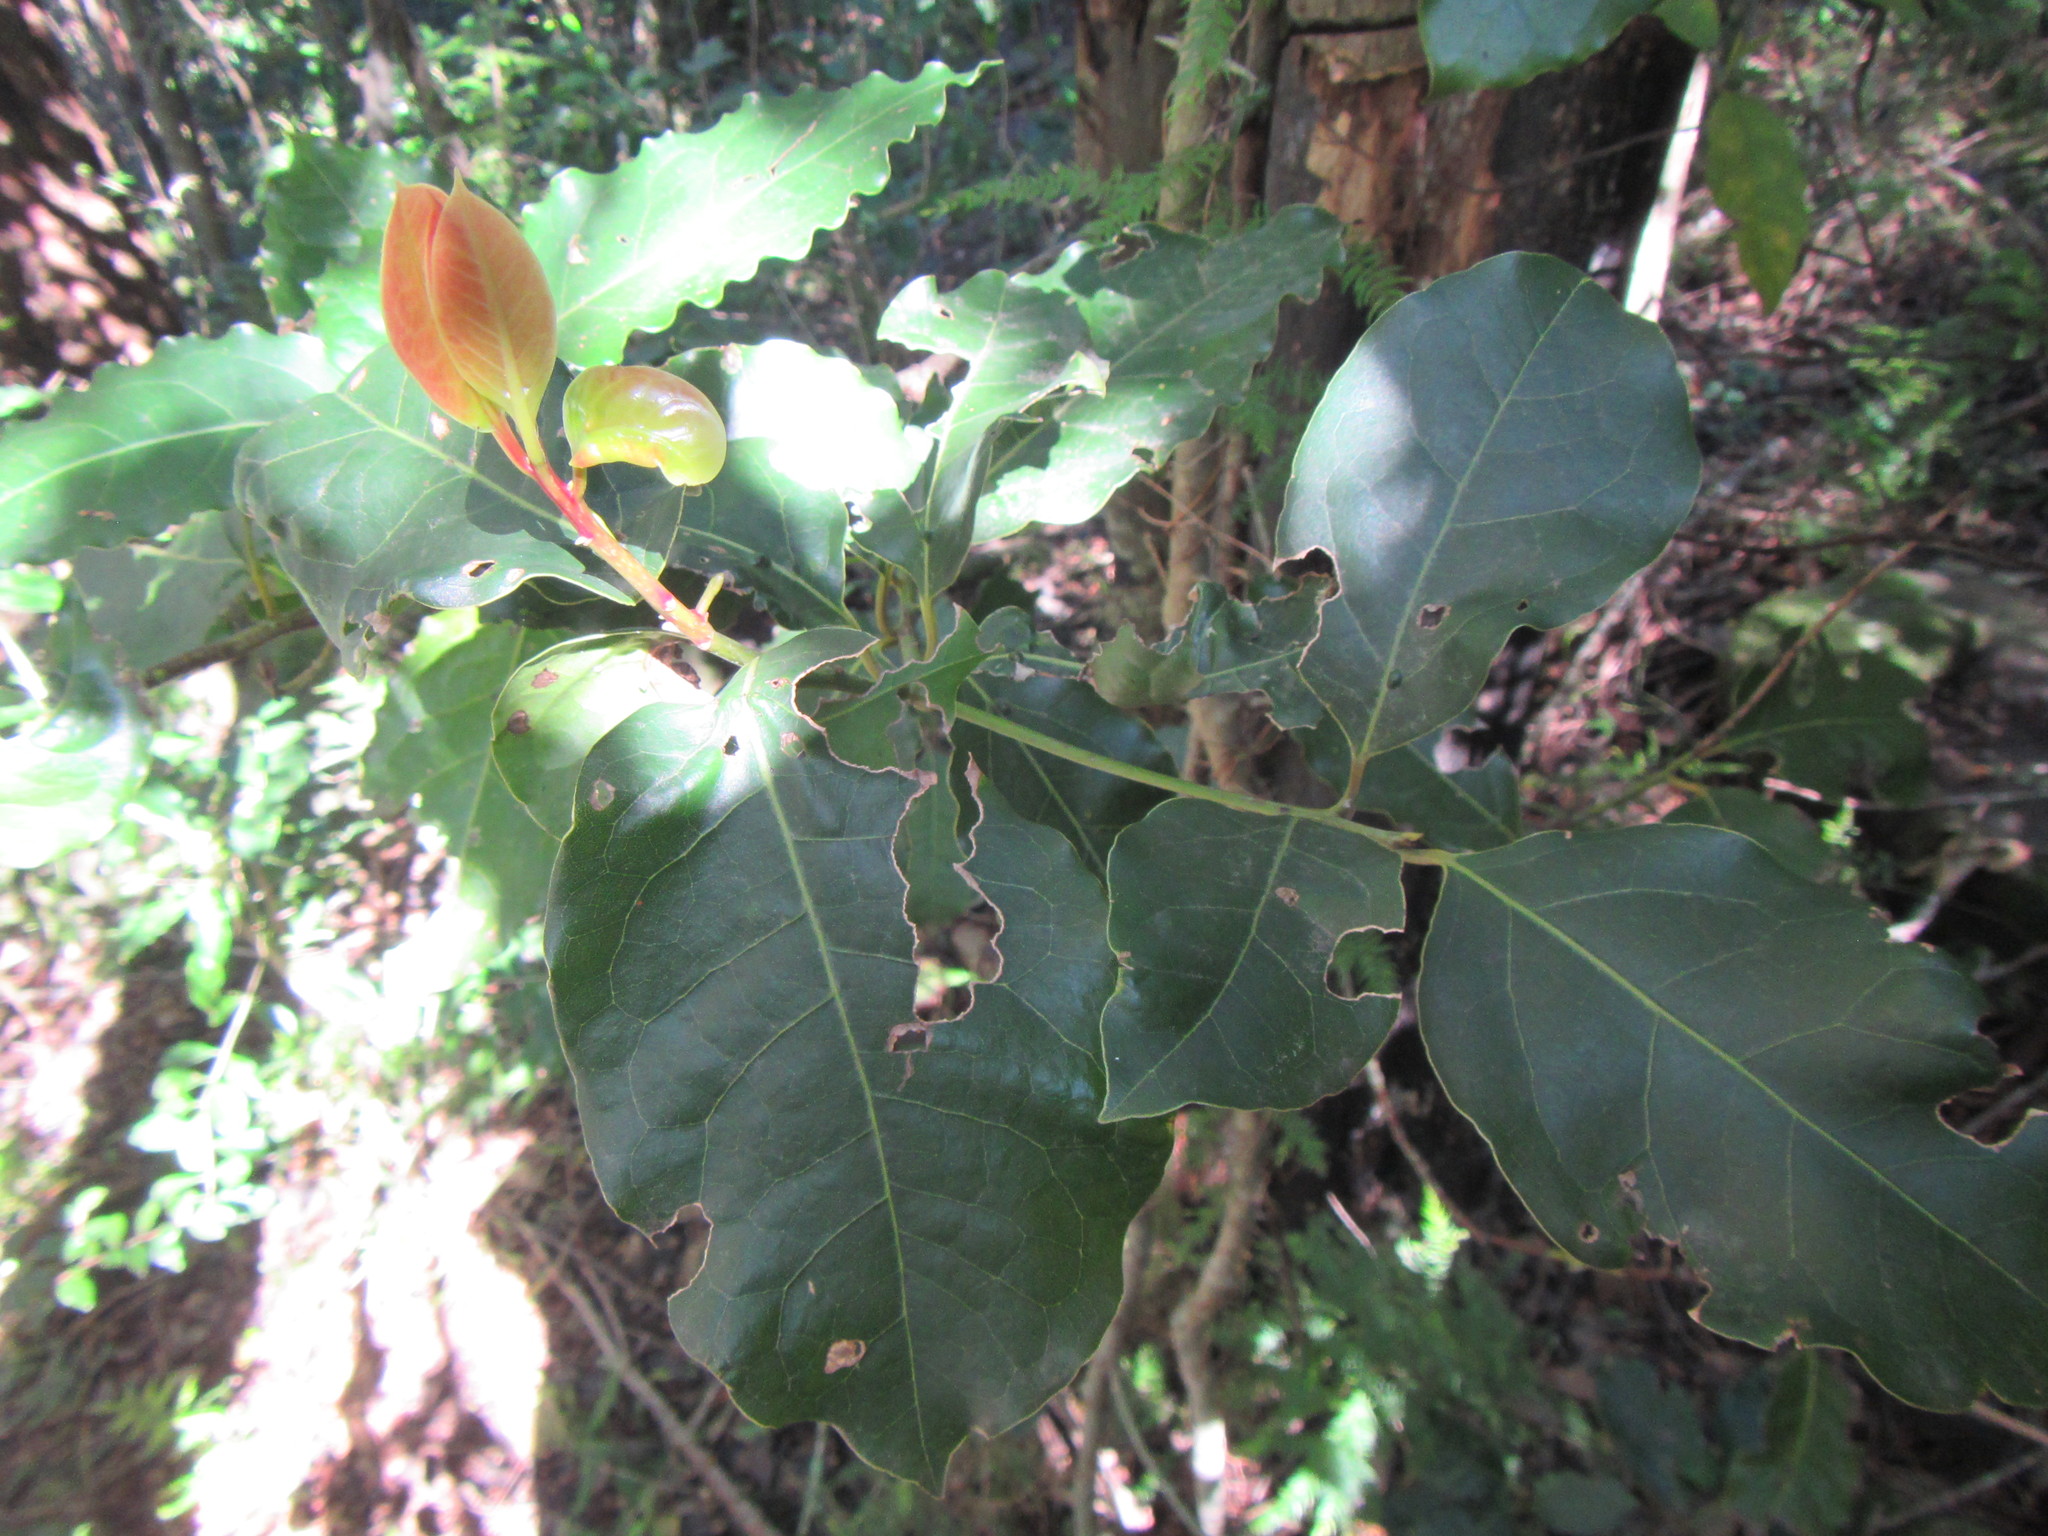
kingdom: Plantae
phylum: Tracheophyta
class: Magnoliopsida
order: Laurales
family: Lauraceae
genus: Ocotea
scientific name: Ocotea bullata
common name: Black stinkwood
